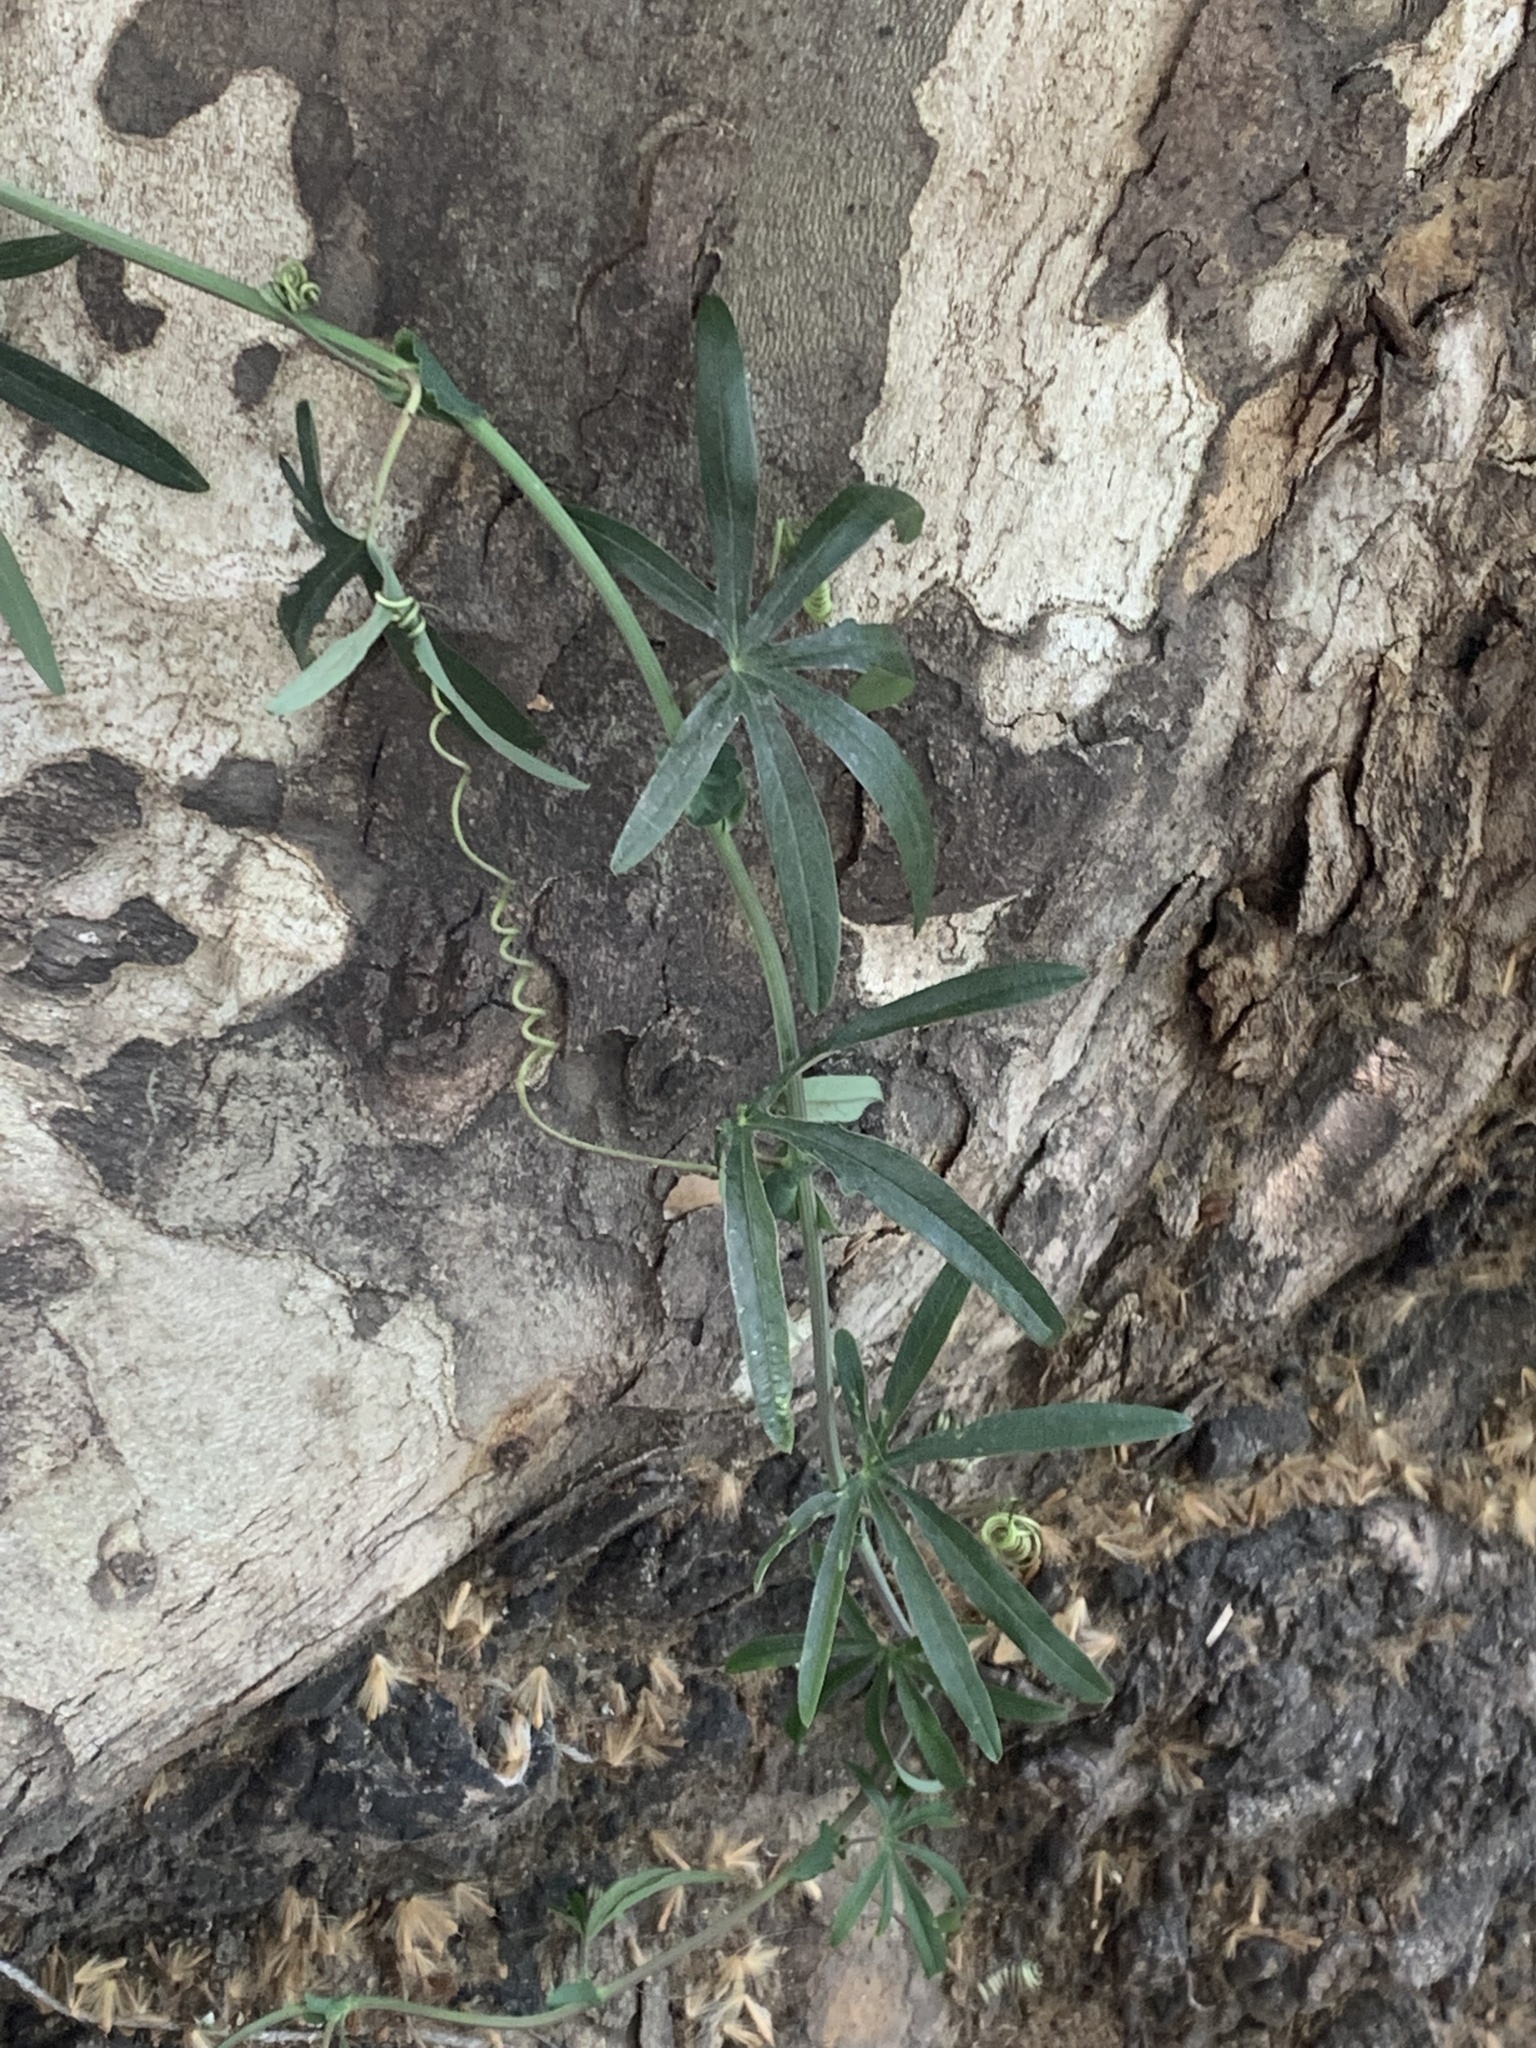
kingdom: Plantae
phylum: Tracheophyta
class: Magnoliopsida
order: Malpighiales
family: Passifloraceae
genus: Passiflora
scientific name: Passiflora caerulea
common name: Blue passionflower
